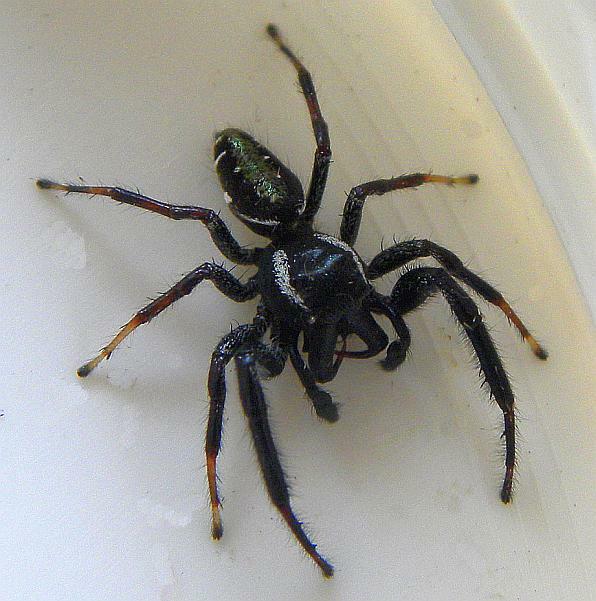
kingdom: Animalia
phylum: Arthropoda
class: Arachnida
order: Araneae
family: Salticidae
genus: Paraphidippus
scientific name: Paraphidippus aurantius
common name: Jumping spiders
